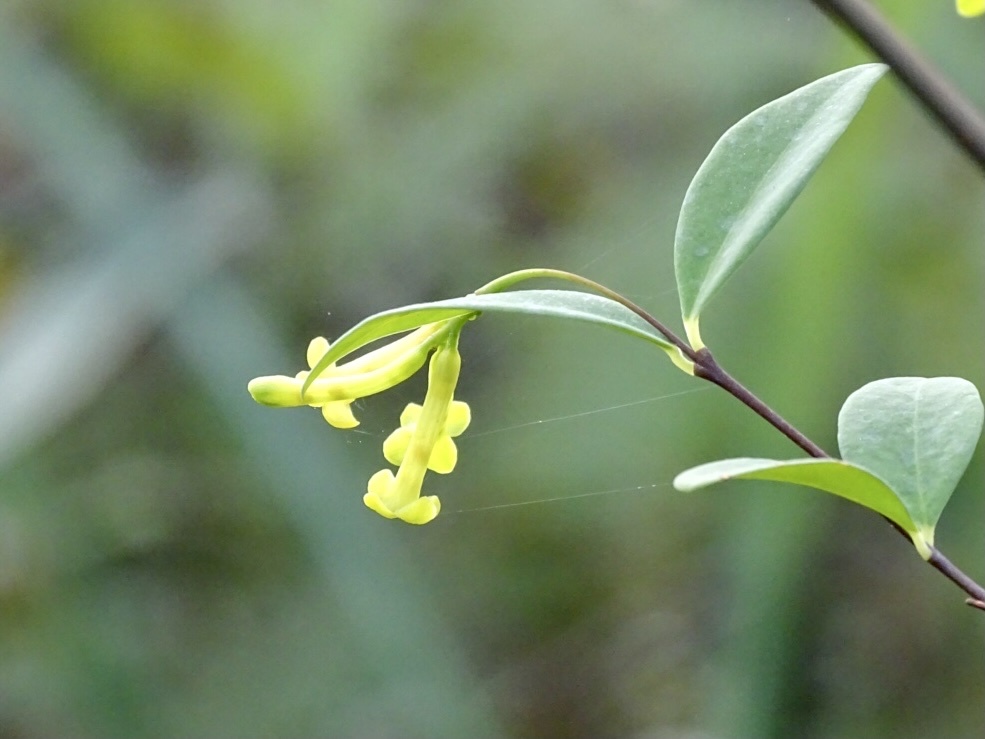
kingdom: Plantae
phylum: Tracheophyta
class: Magnoliopsida
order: Malvales
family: Thymelaeaceae
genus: Wikstroemia
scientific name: Wikstroemia nutans
